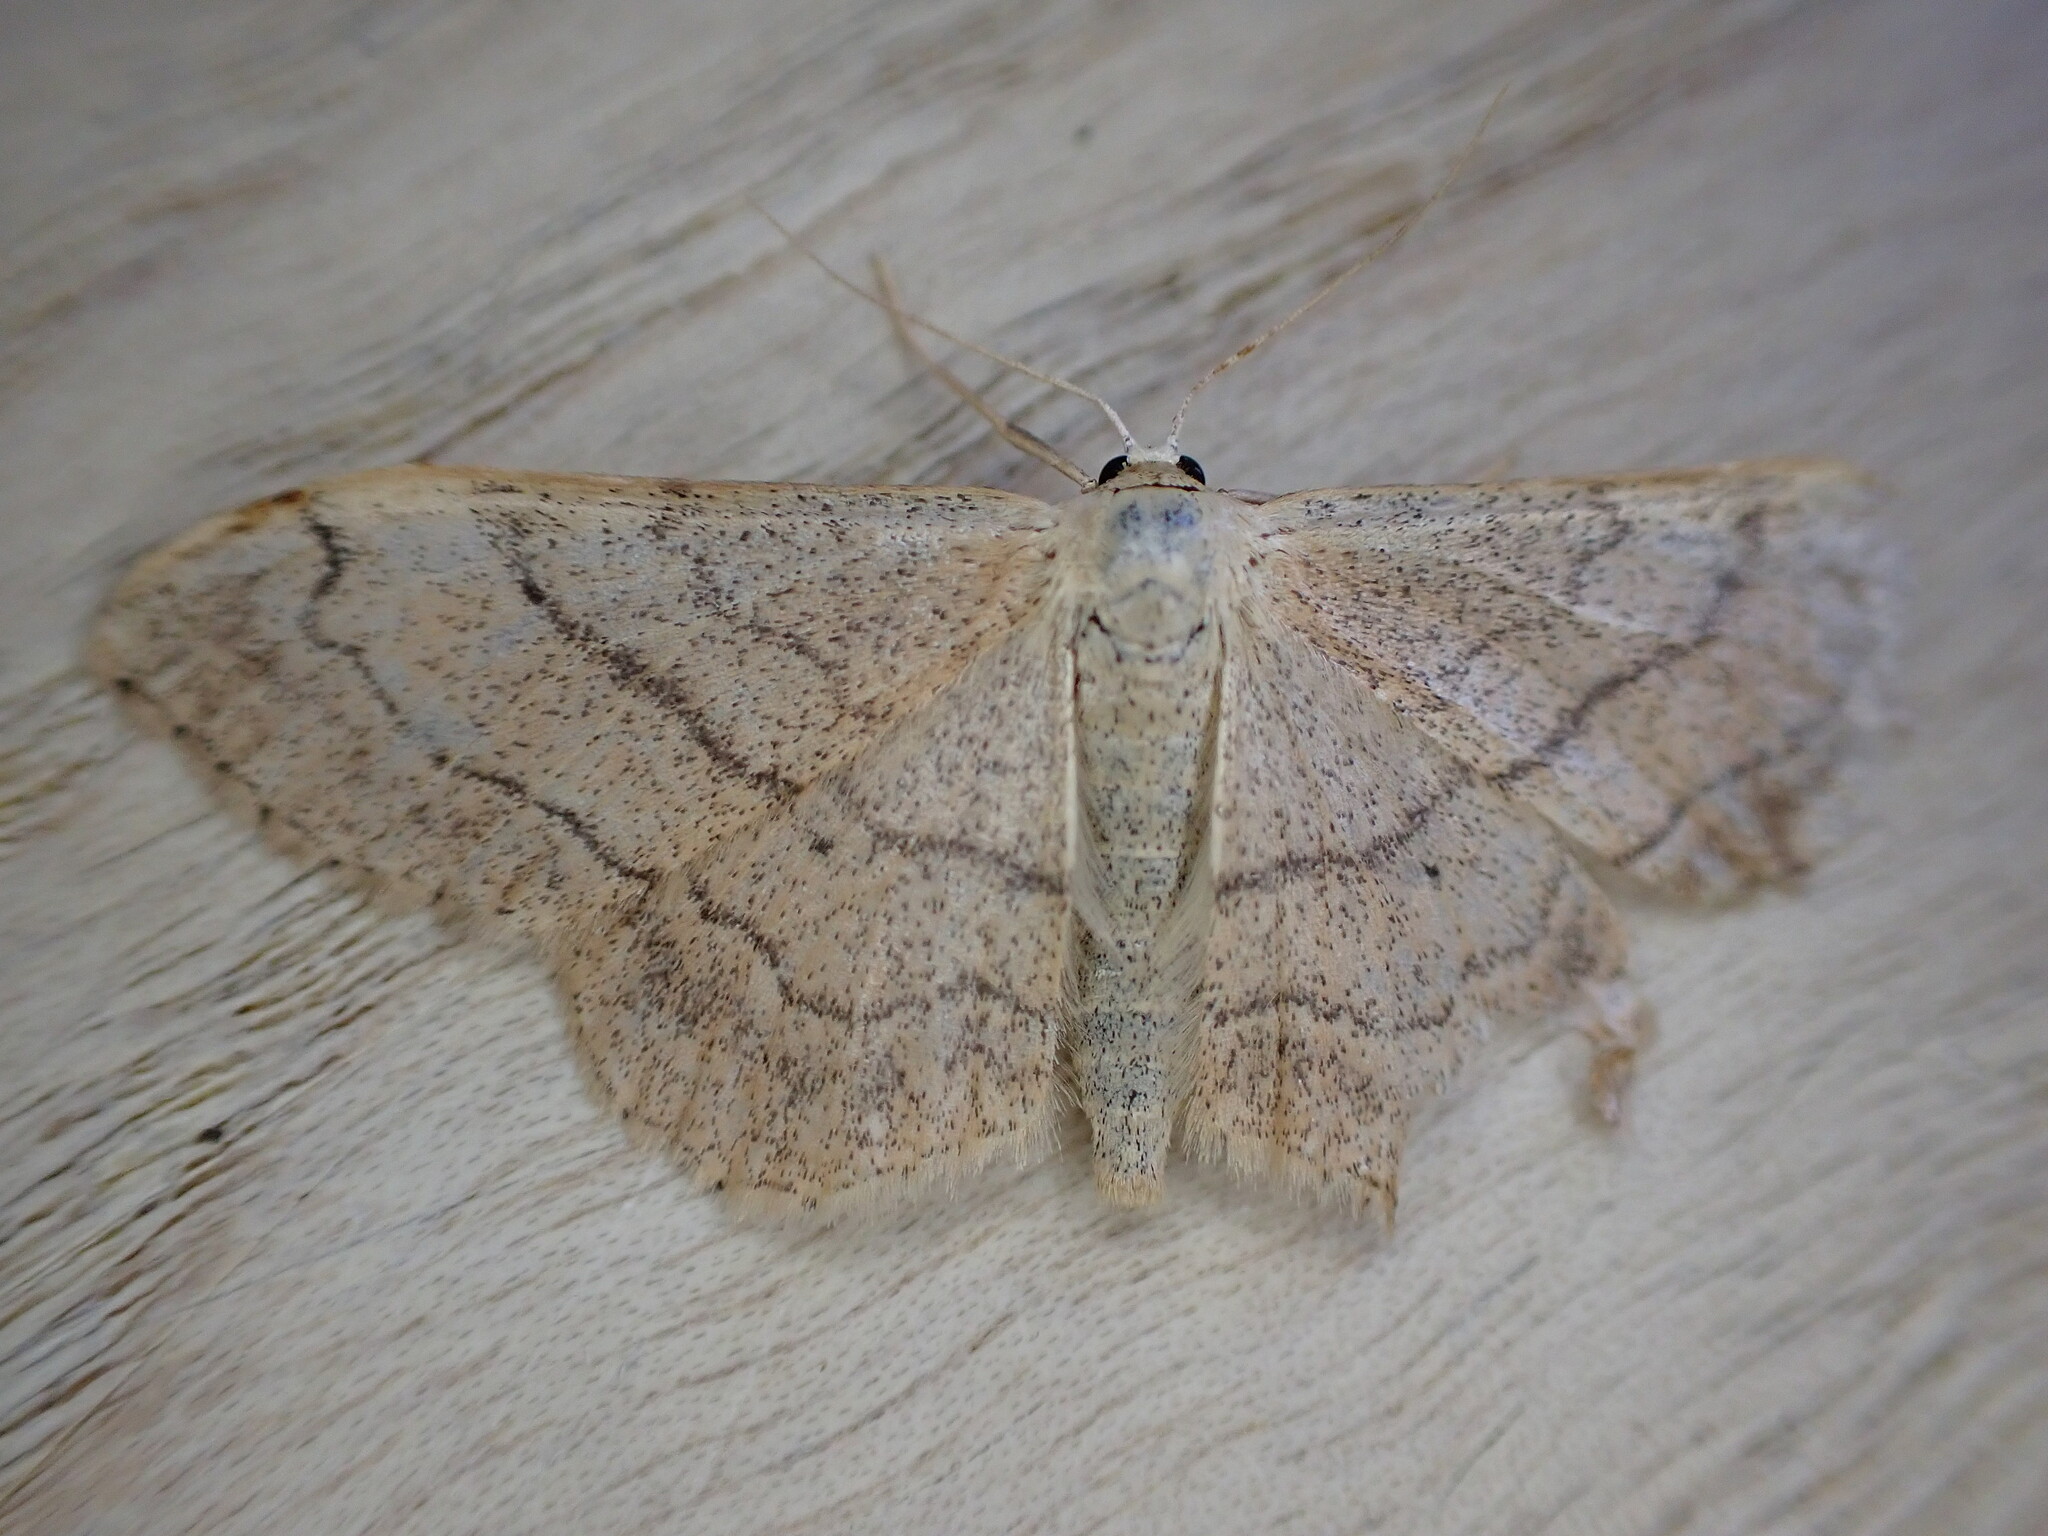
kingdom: Animalia
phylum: Arthropoda
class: Insecta
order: Lepidoptera
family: Geometridae
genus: Idaea
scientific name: Idaea aversata
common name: Riband wave
